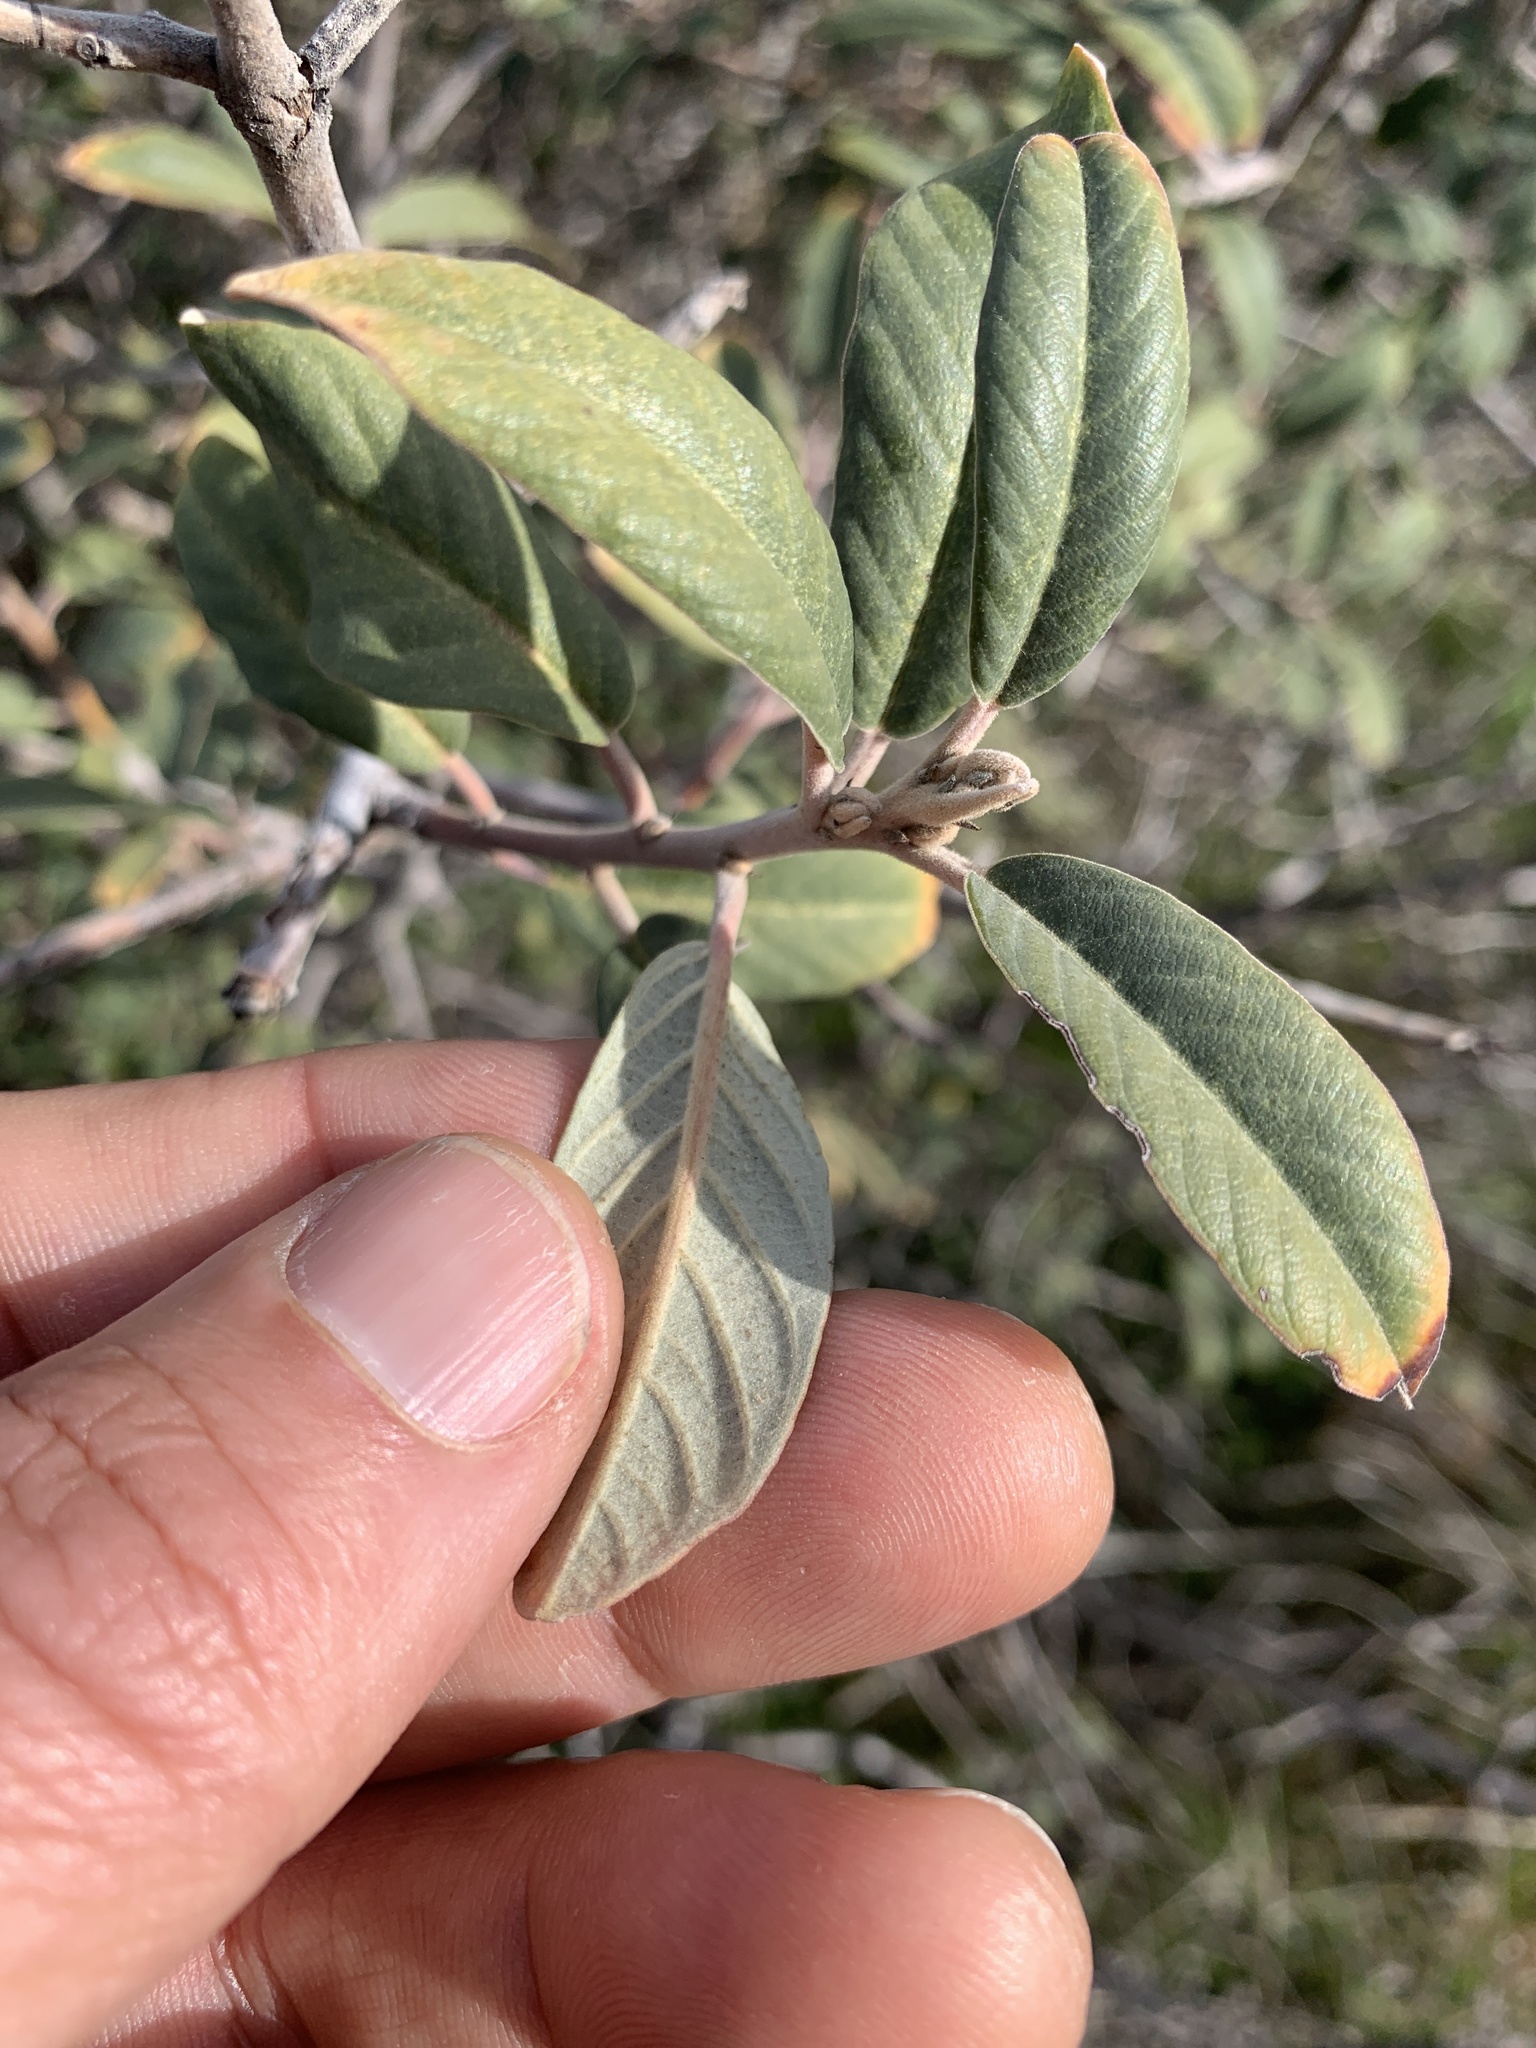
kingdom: Plantae
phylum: Tracheophyta
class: Magnoliopsida
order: Rosales
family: Rhamnaceae
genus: Frangula
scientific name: Frangula californica
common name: California buckthorn
